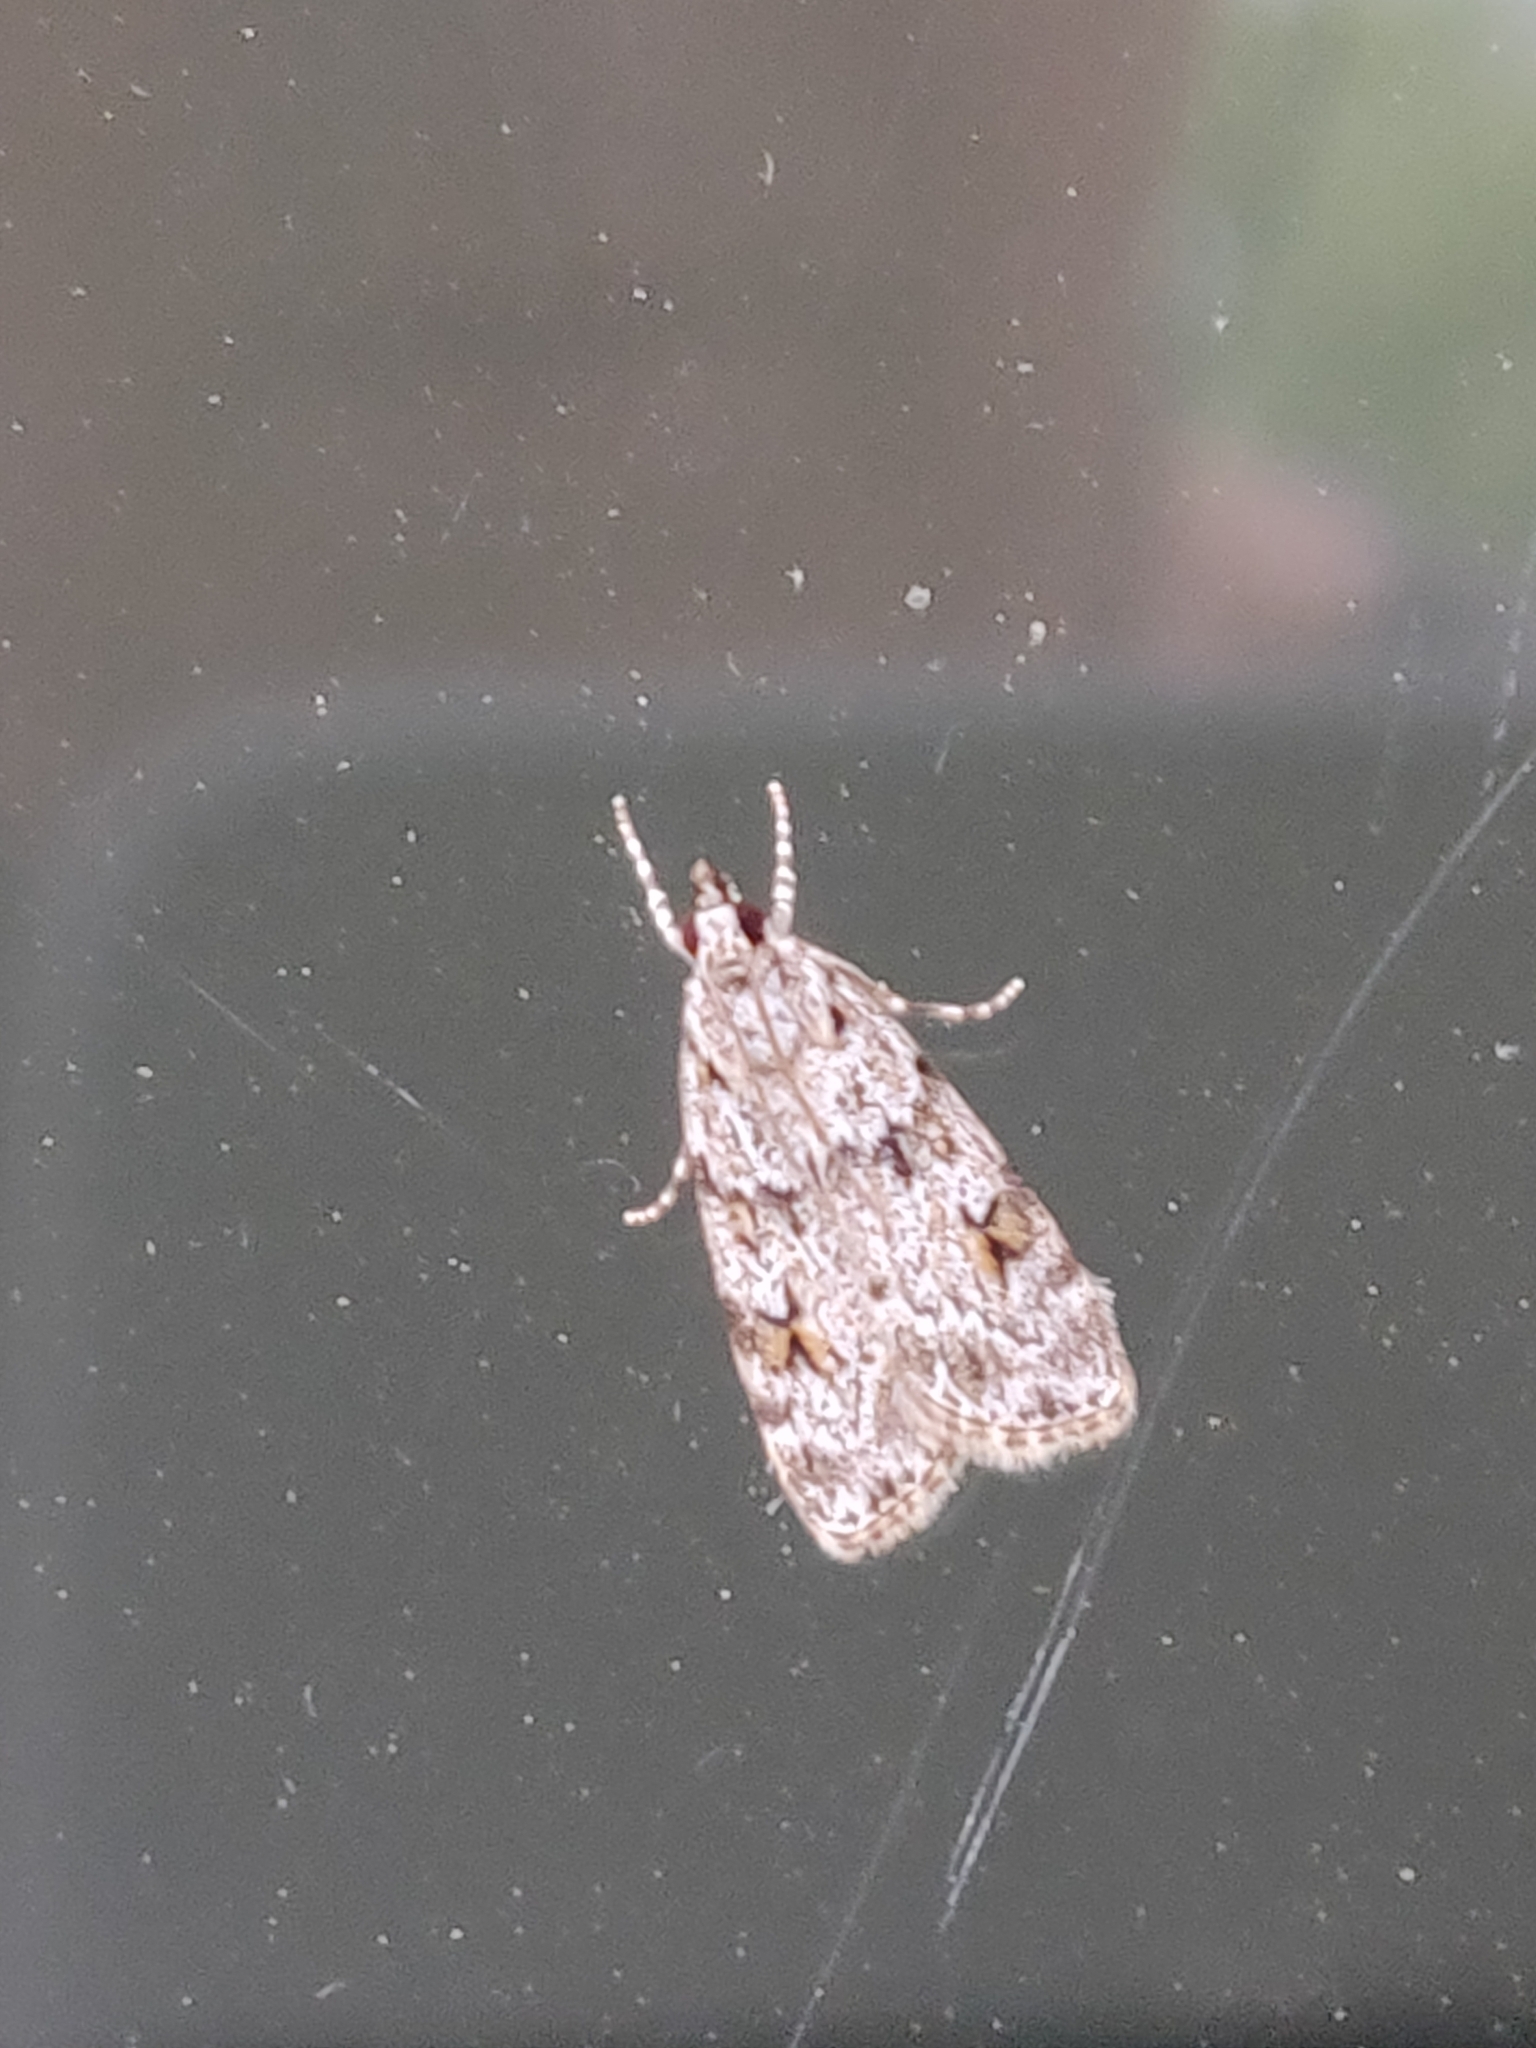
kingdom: Animalia
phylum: Arthropoda
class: Insecta
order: Lepidoptera
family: Crambidae
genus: Scoparia
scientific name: Scoparia pyralella
